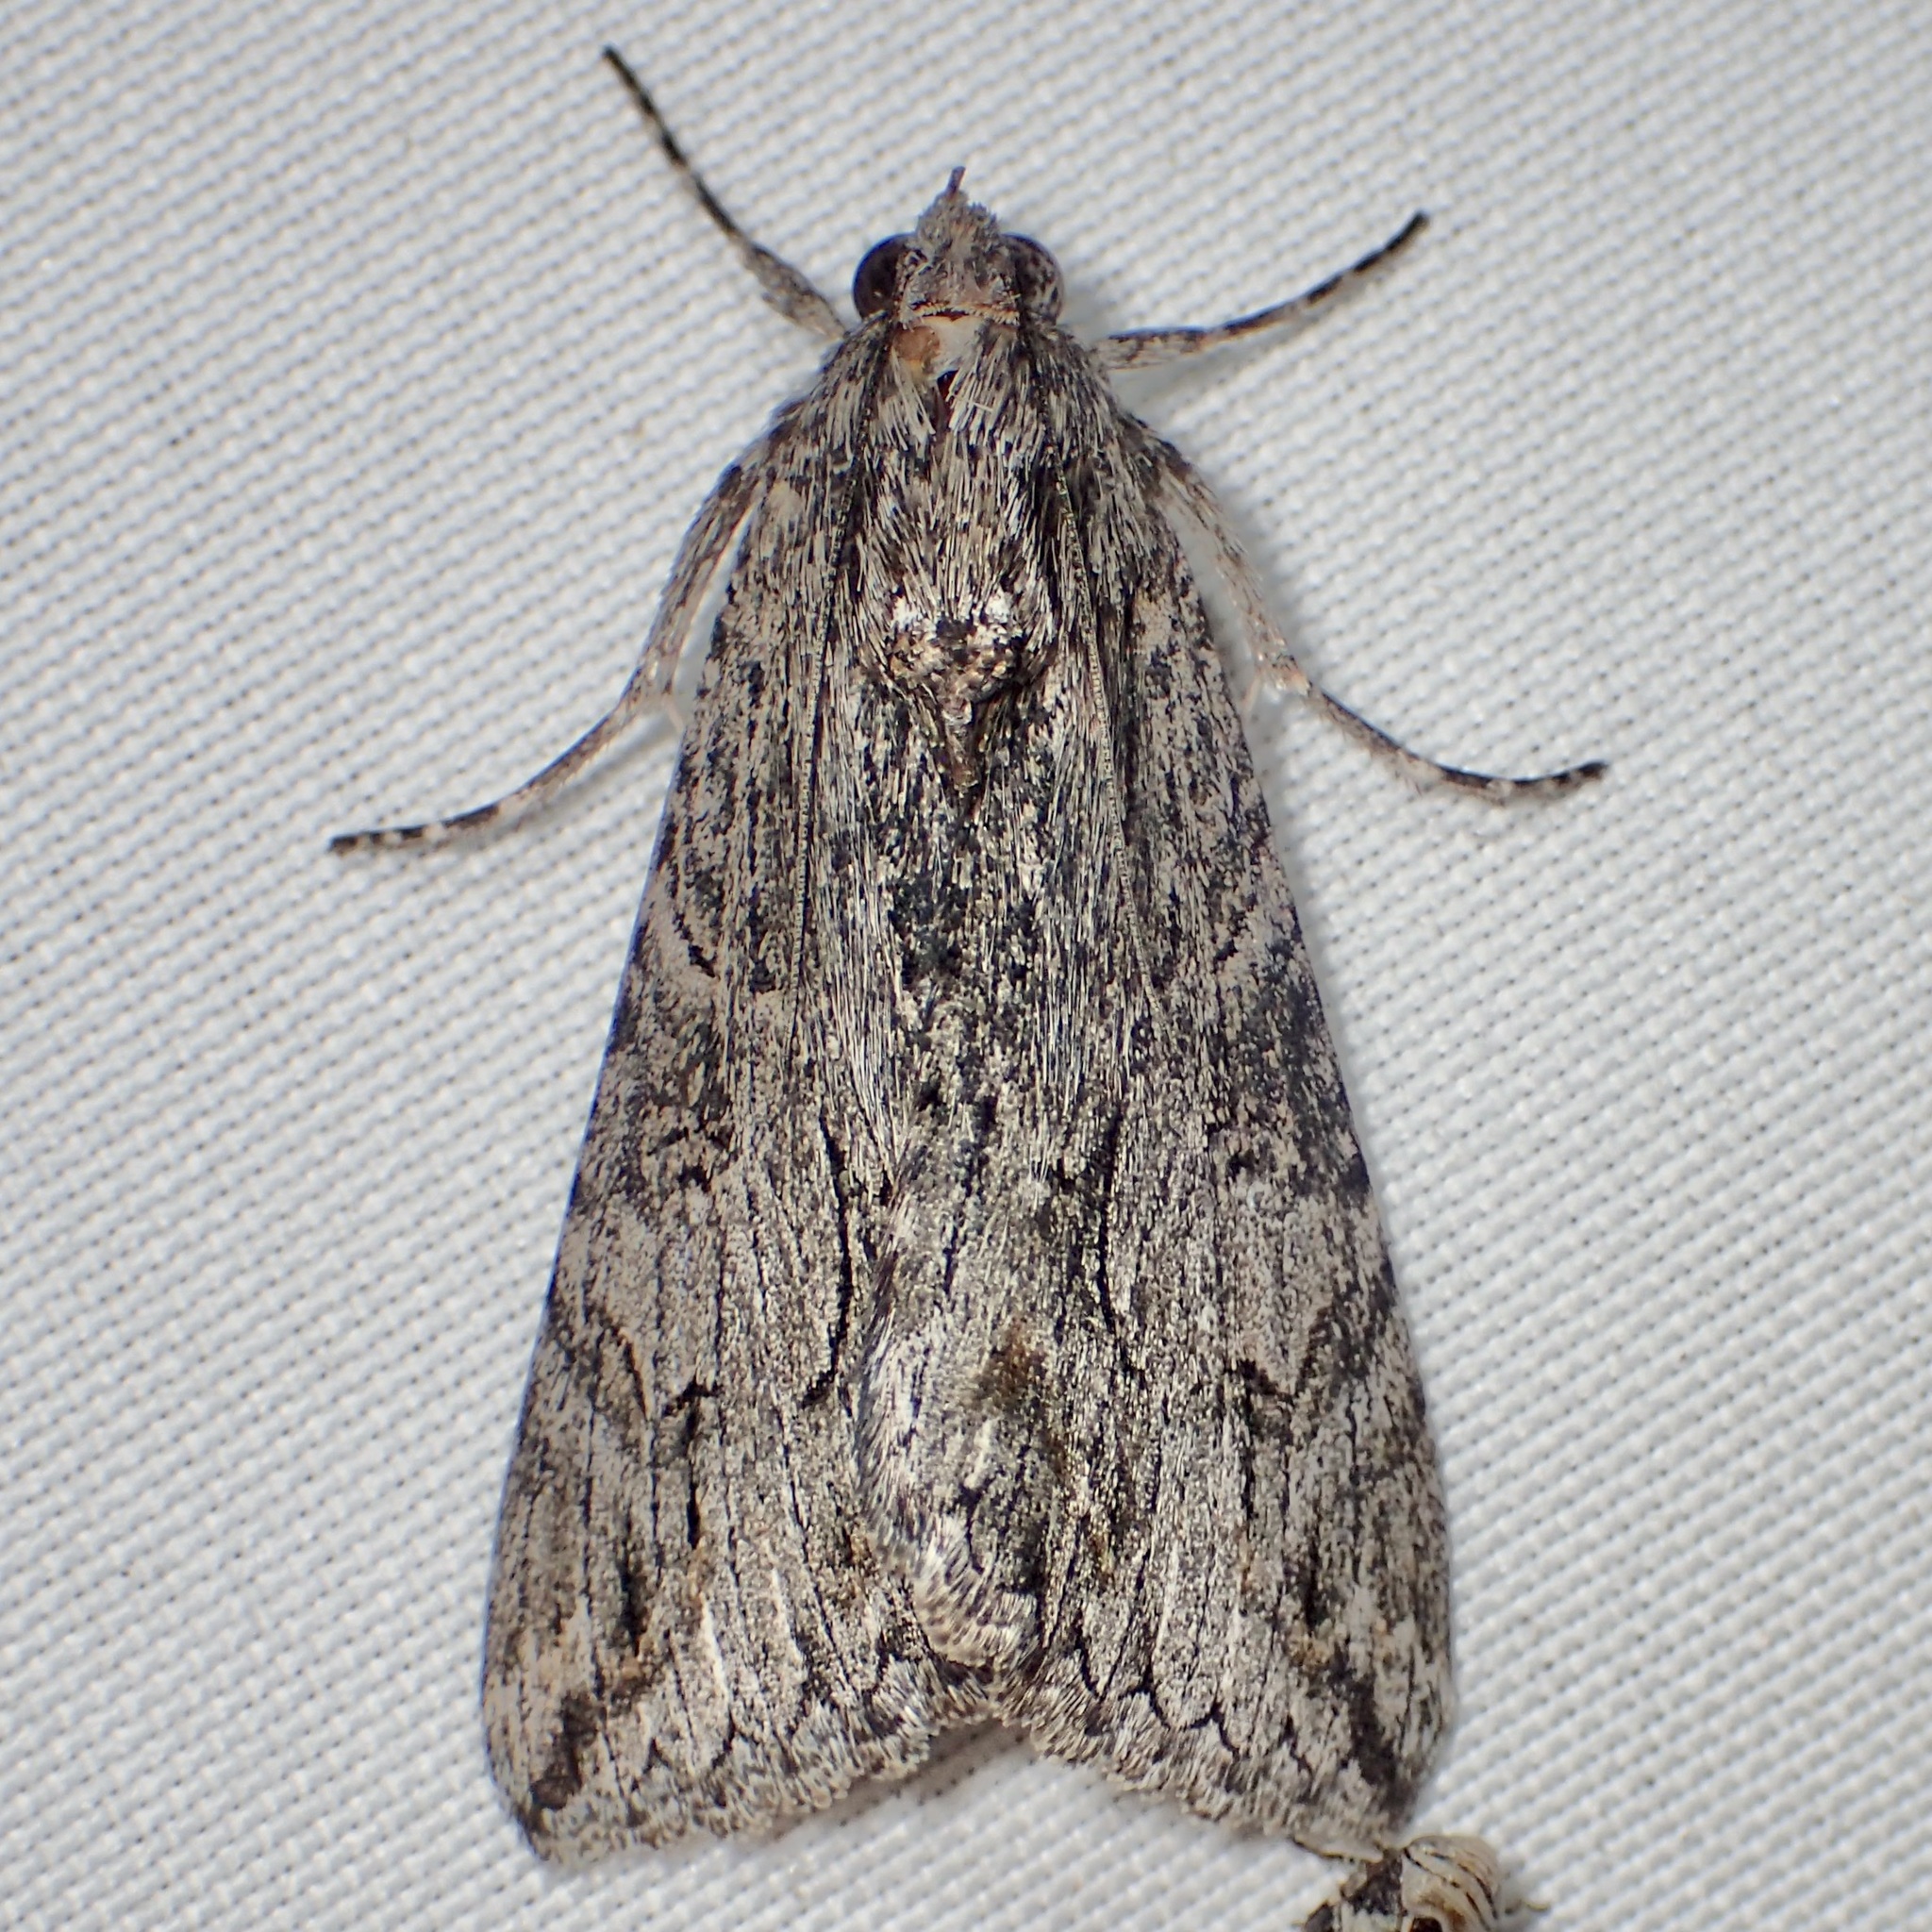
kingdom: Animalia
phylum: Arthropoda
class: Insecta
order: Lepidoptera
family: Erebidae
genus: Melipotis
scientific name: Melipotis jucunda
